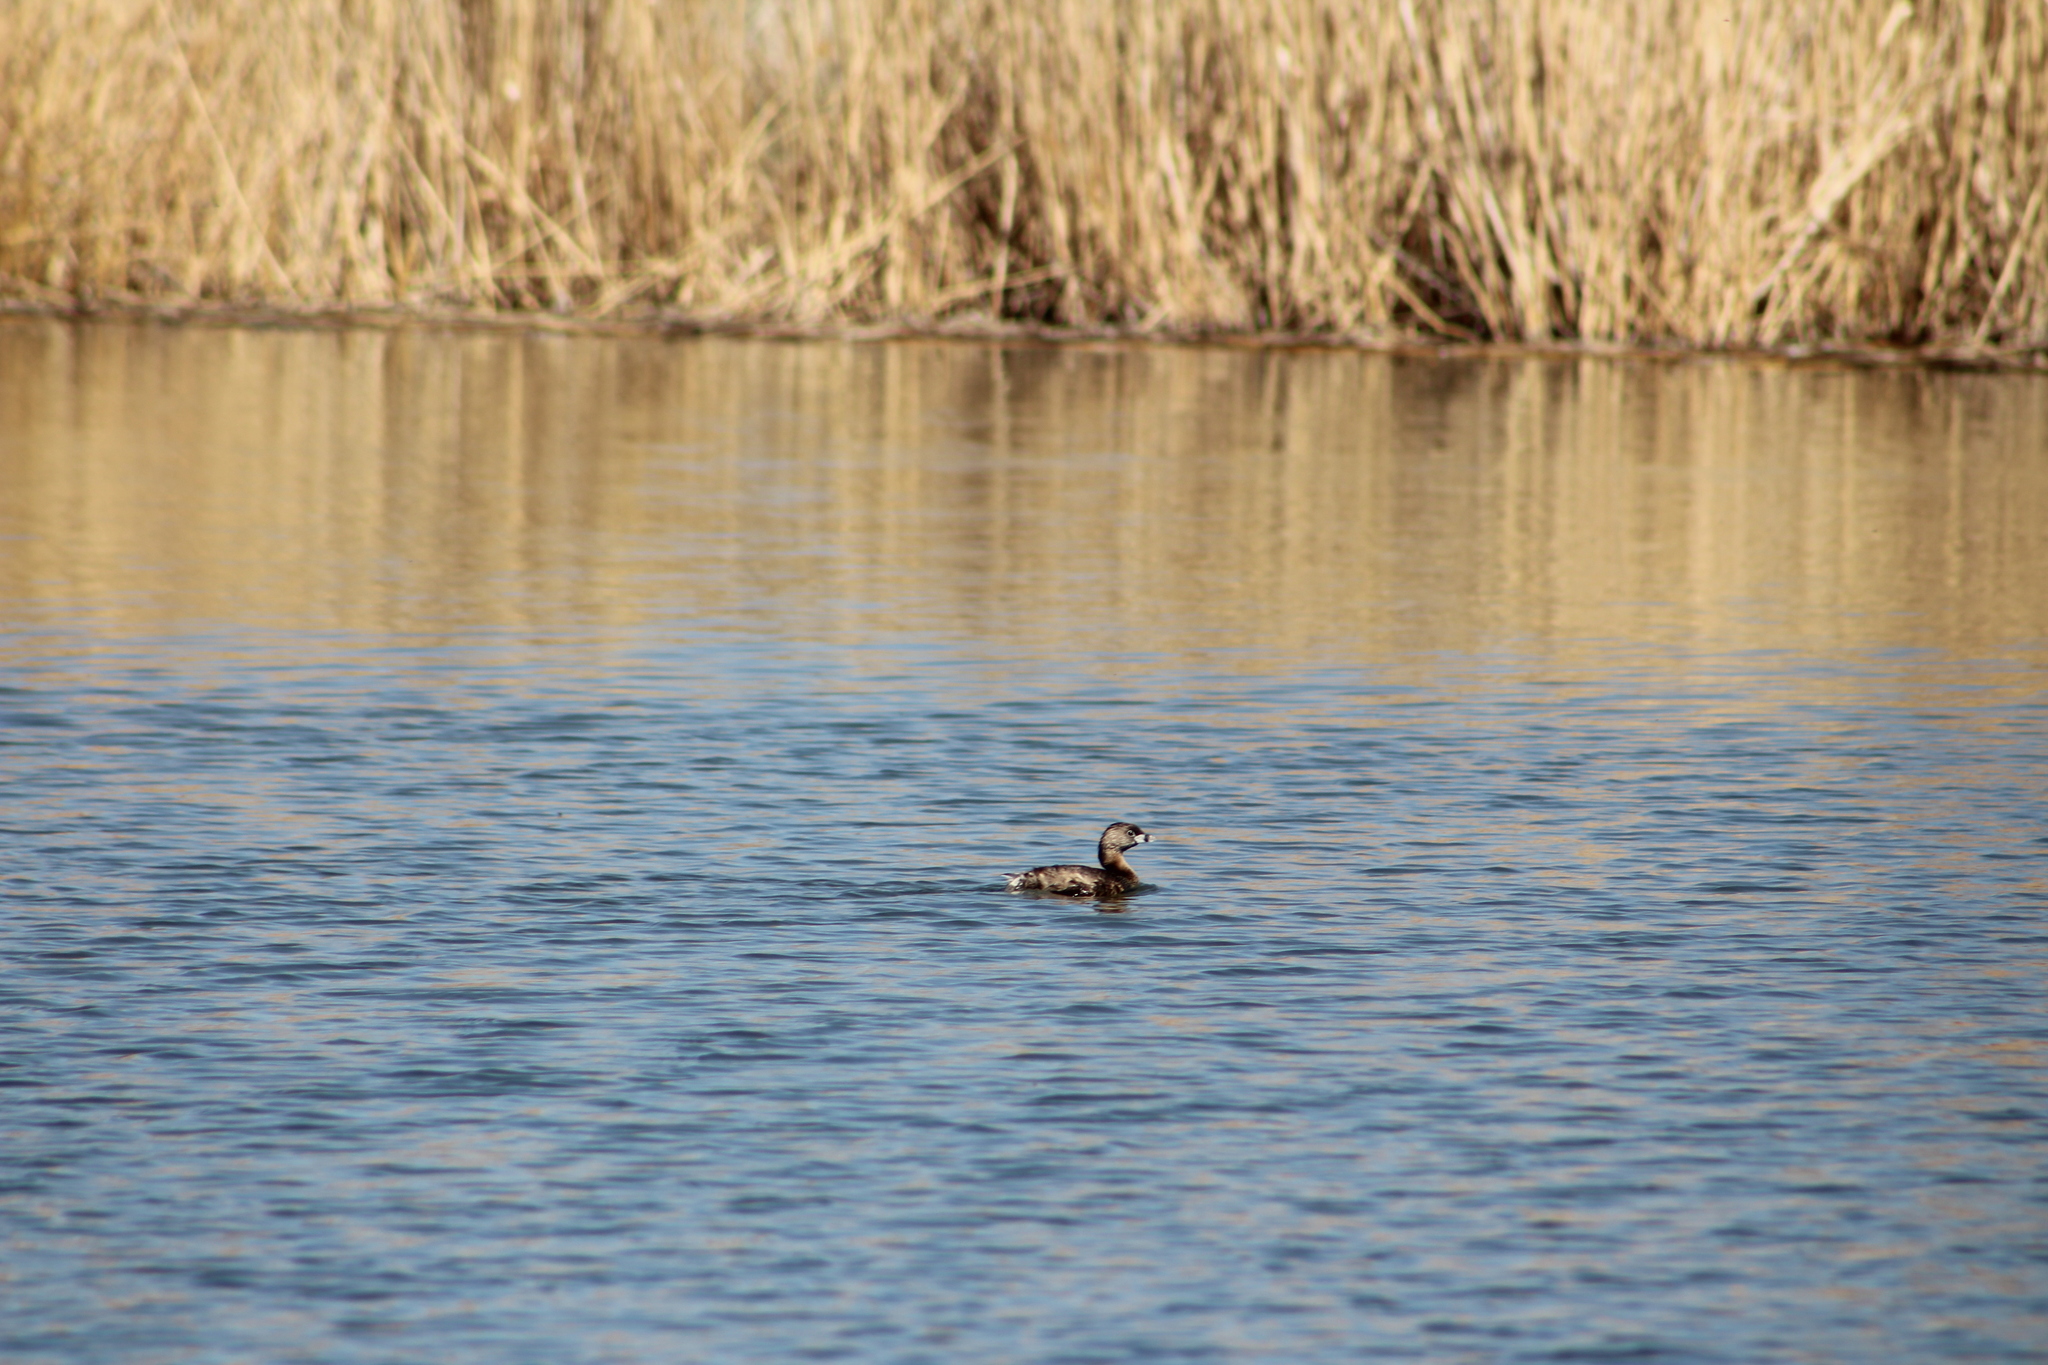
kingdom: Animalia
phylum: Chordata
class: Aves
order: Podicipediformes
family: Podicipedidae
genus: Podilymbus
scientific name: Podilymbus podiceps
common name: Pied-billed grebe
